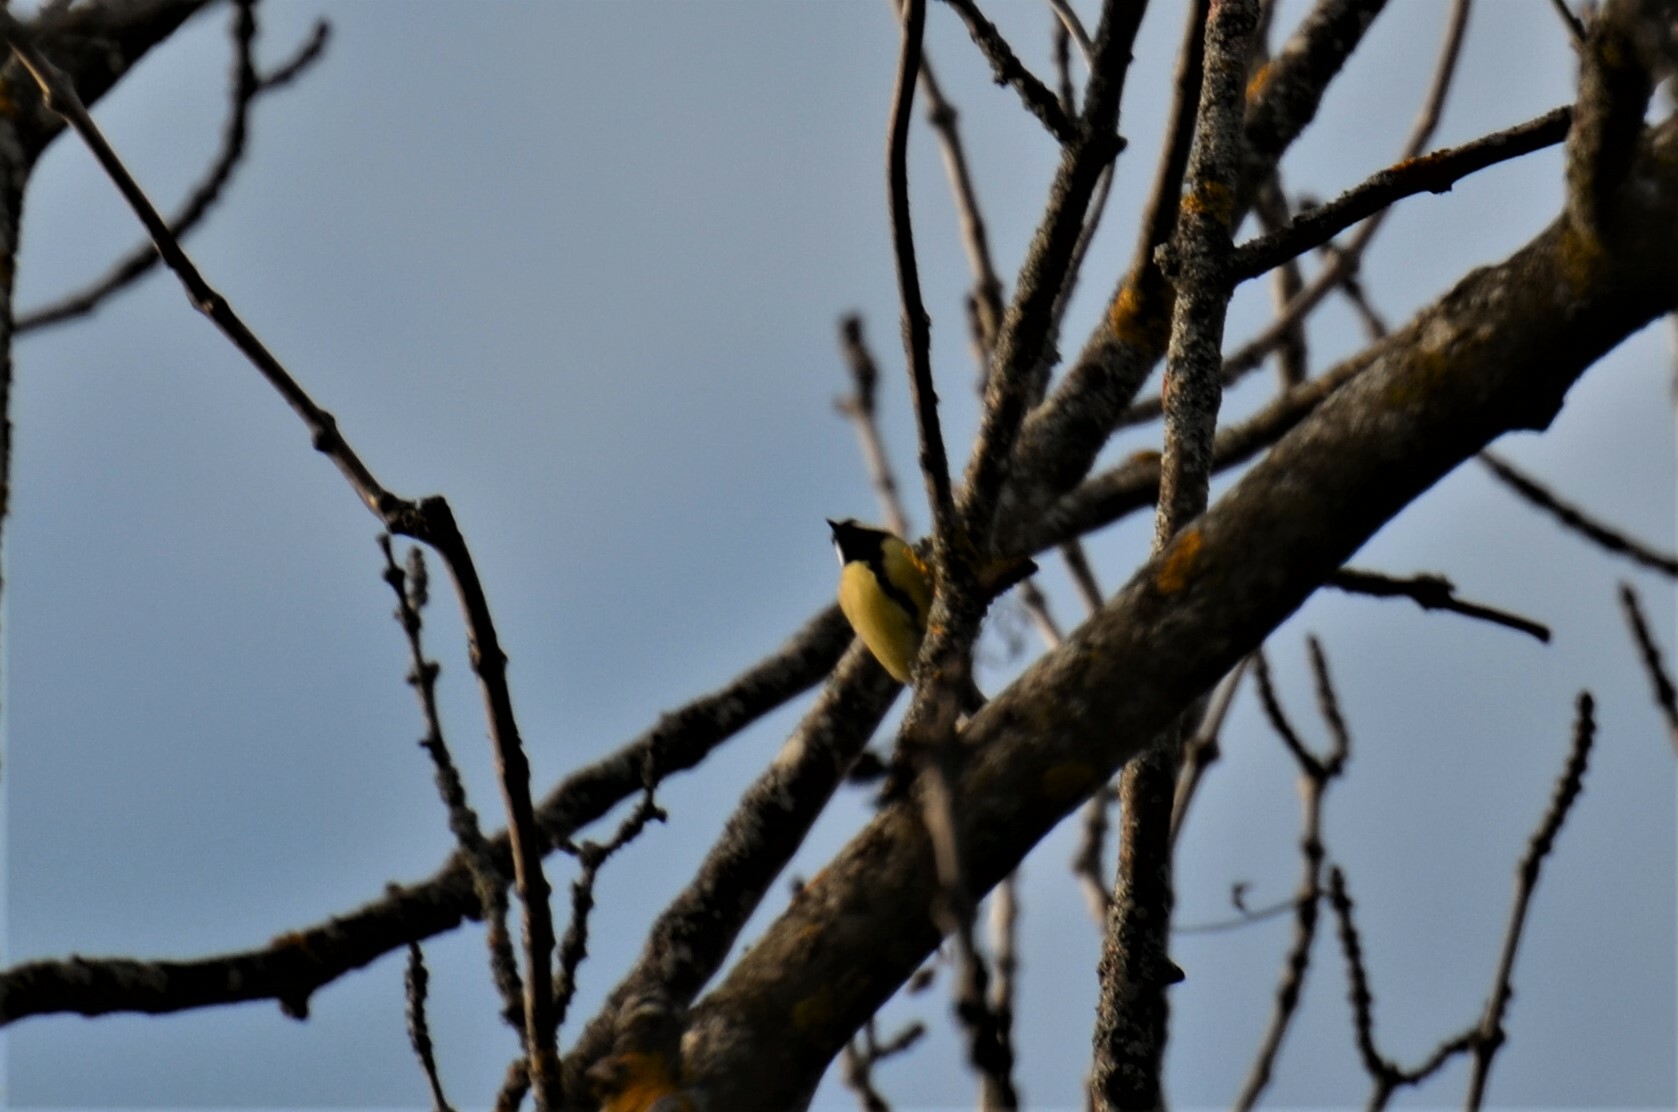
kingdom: Animalia
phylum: Chordata
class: Aves
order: Passeriformes
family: Paridae
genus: Parus
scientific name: Parus major
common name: Great tit
